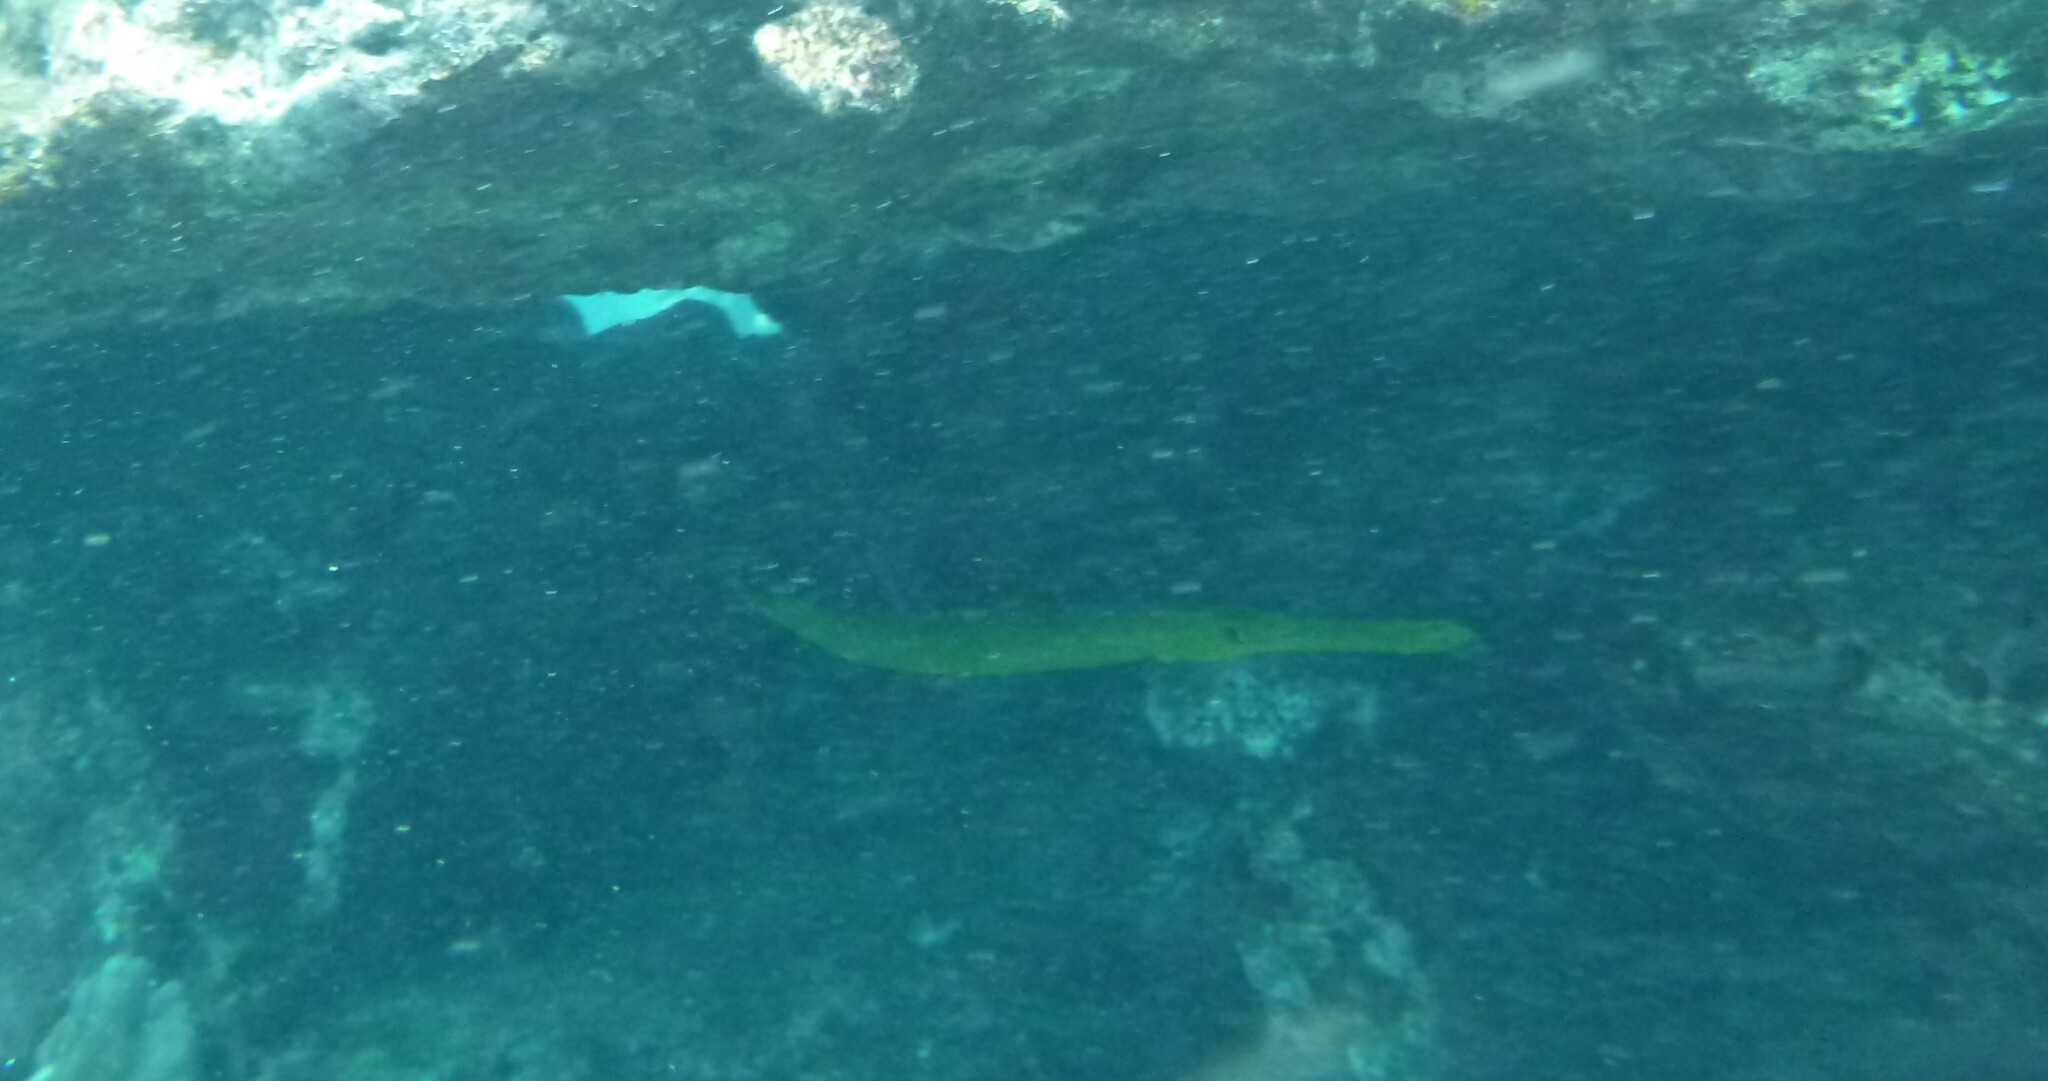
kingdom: Animalia
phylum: Chordata
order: Syngnathiformes
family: Aulostomidae
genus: Aulostomus
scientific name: Aulostomus chinensis
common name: Chinese trumpetfish
